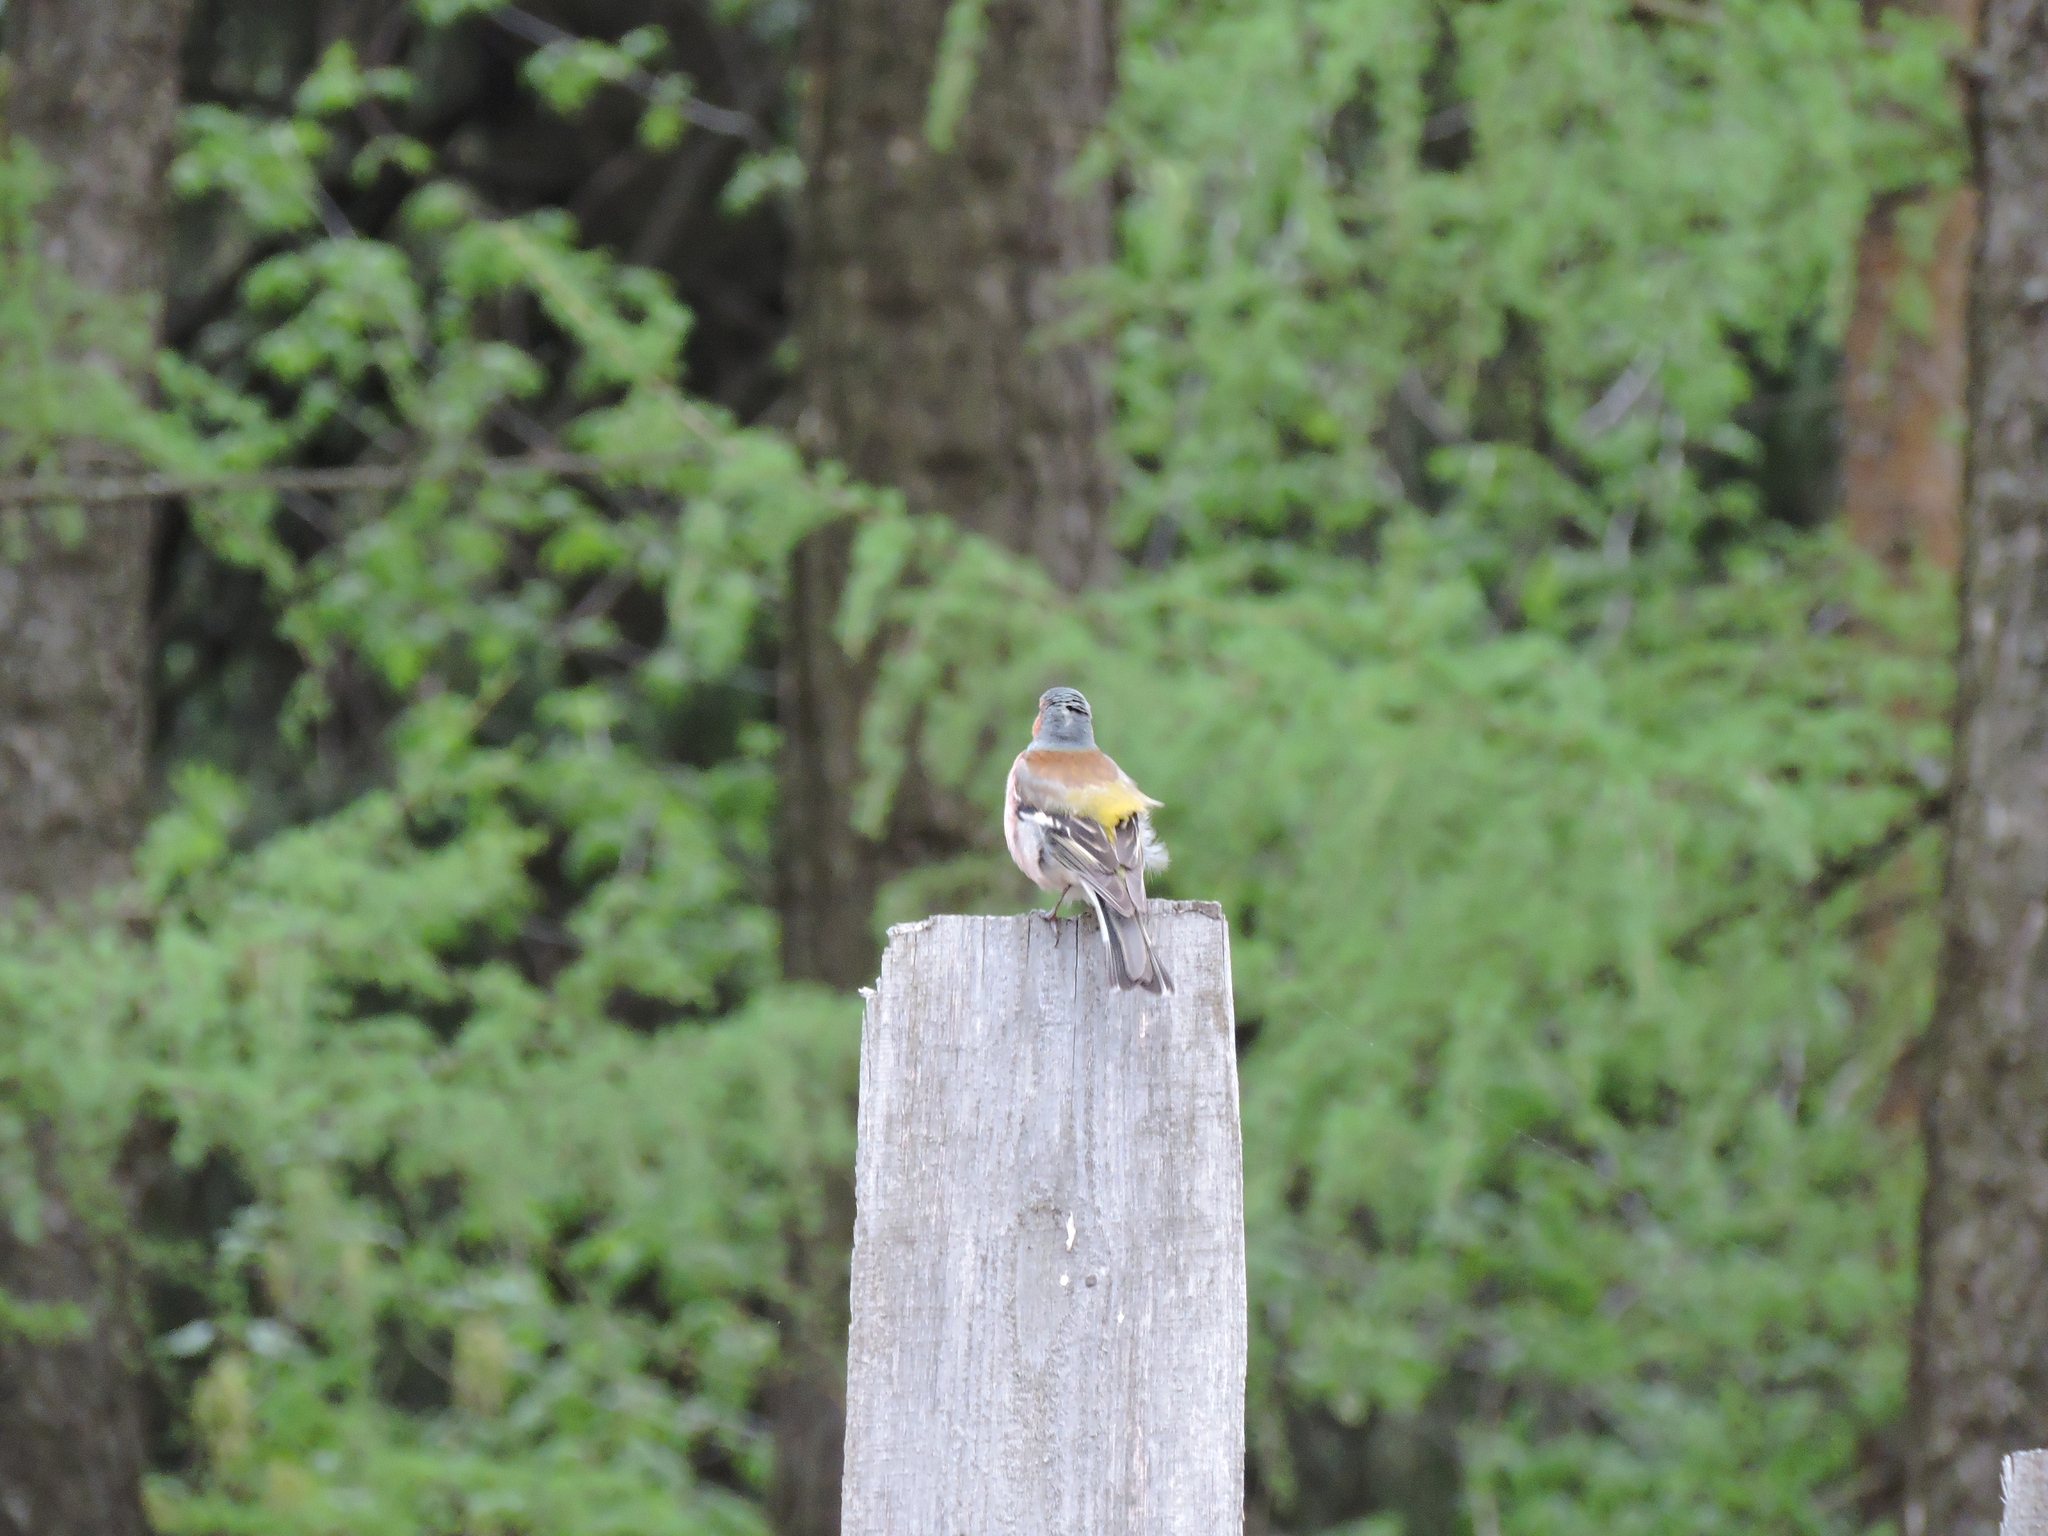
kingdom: Animalia
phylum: Chordata
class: Aves
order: Passeriformes
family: Fringillidae
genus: Fringilla
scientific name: Fringilla coelebs
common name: Common chaffinch
